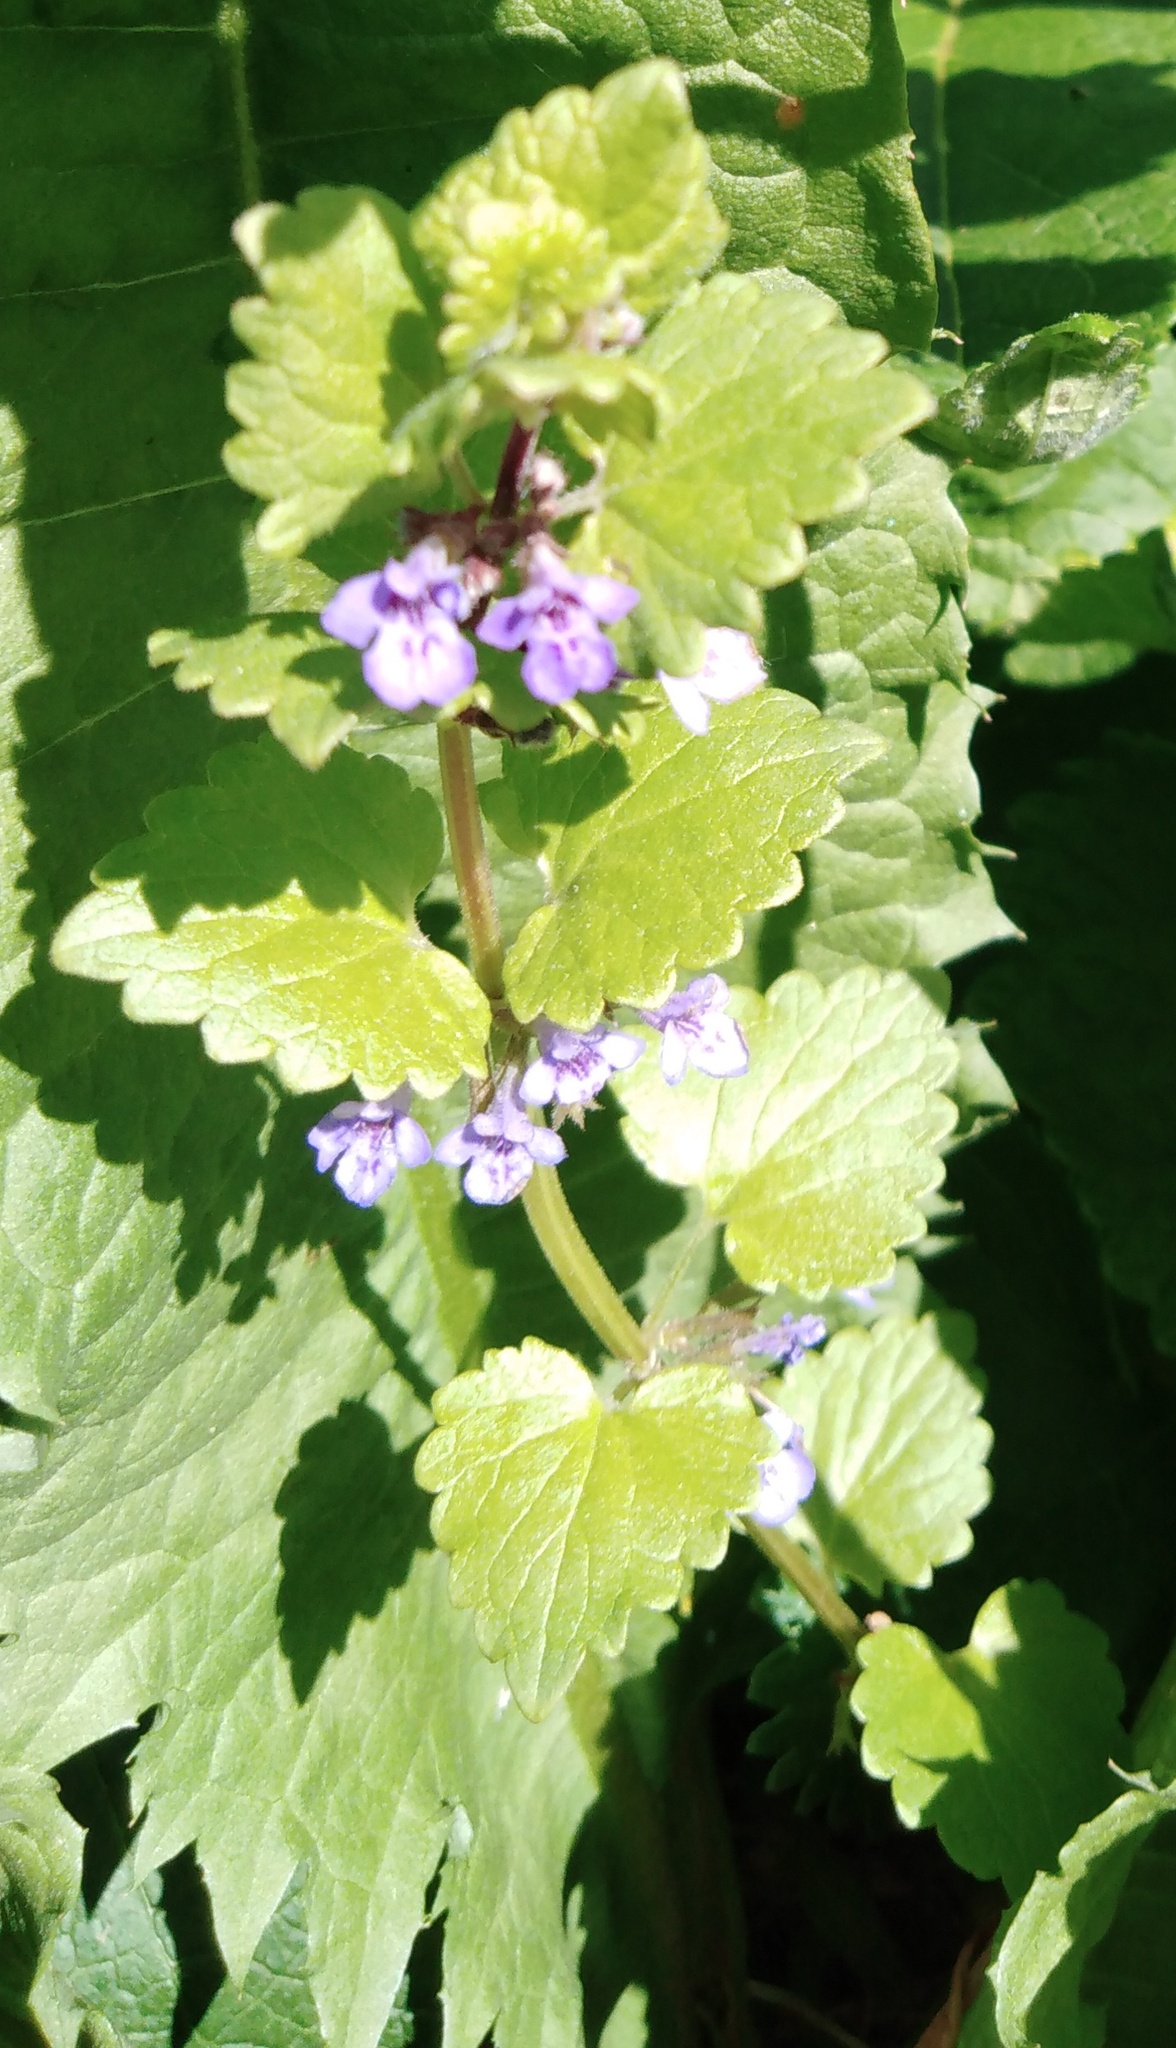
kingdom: Plantae
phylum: Tracheophyta
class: Magnoliopsida
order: Lamiales
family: Lamiaceae
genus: Glechoma
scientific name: Glechoma hederacea
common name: Ground ivy
